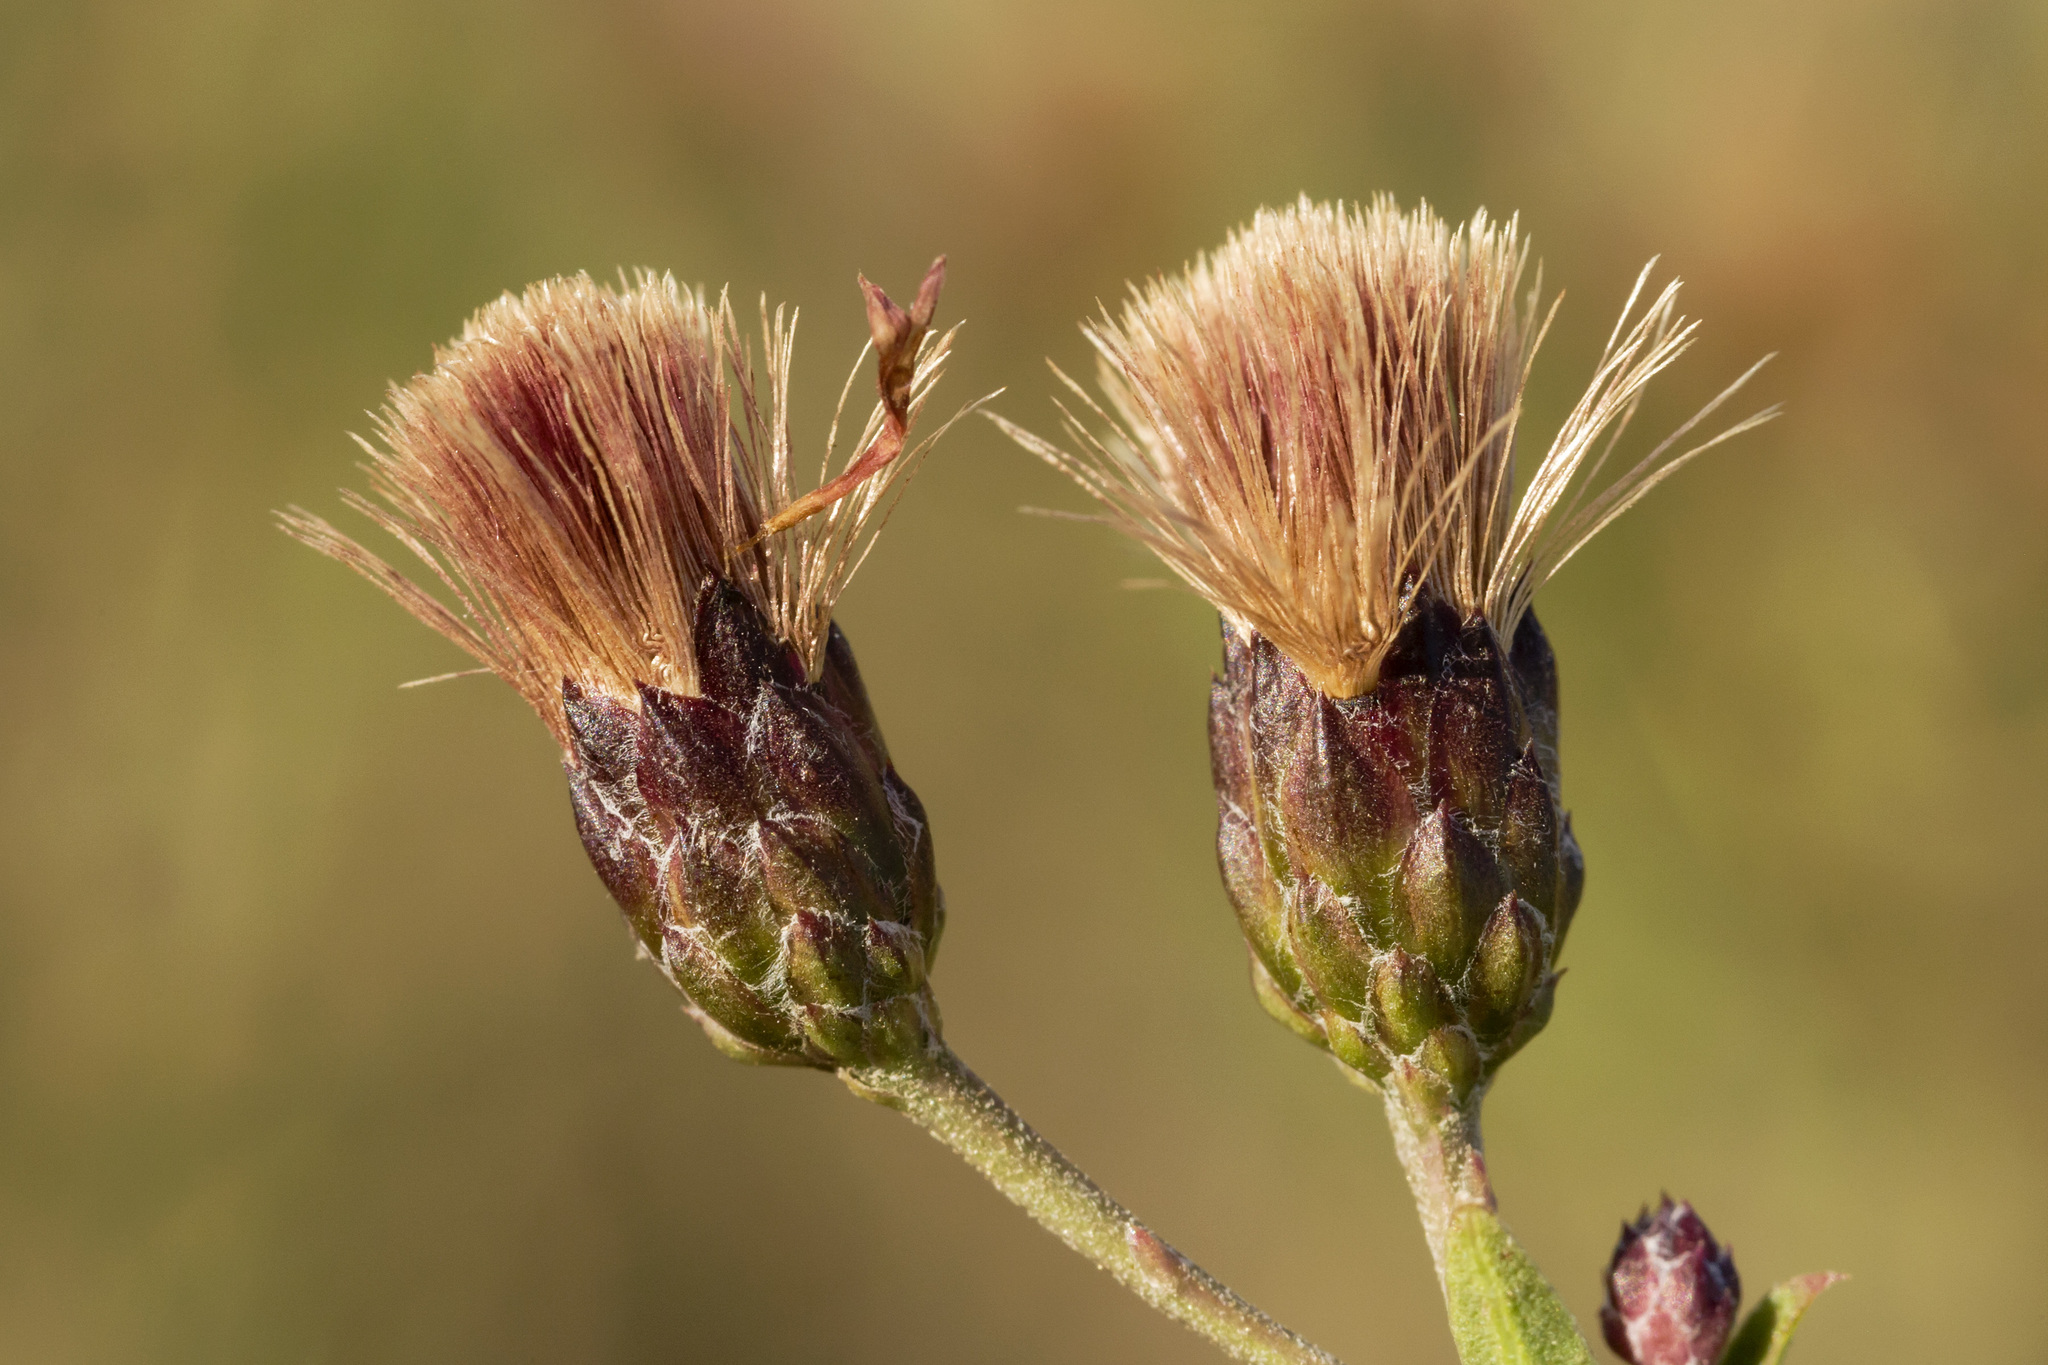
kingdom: Plantae
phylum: Tracheophyta
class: Magnoliopsida
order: Asterales
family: Asteraceae
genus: Vernonia
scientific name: Vernonia marginata
